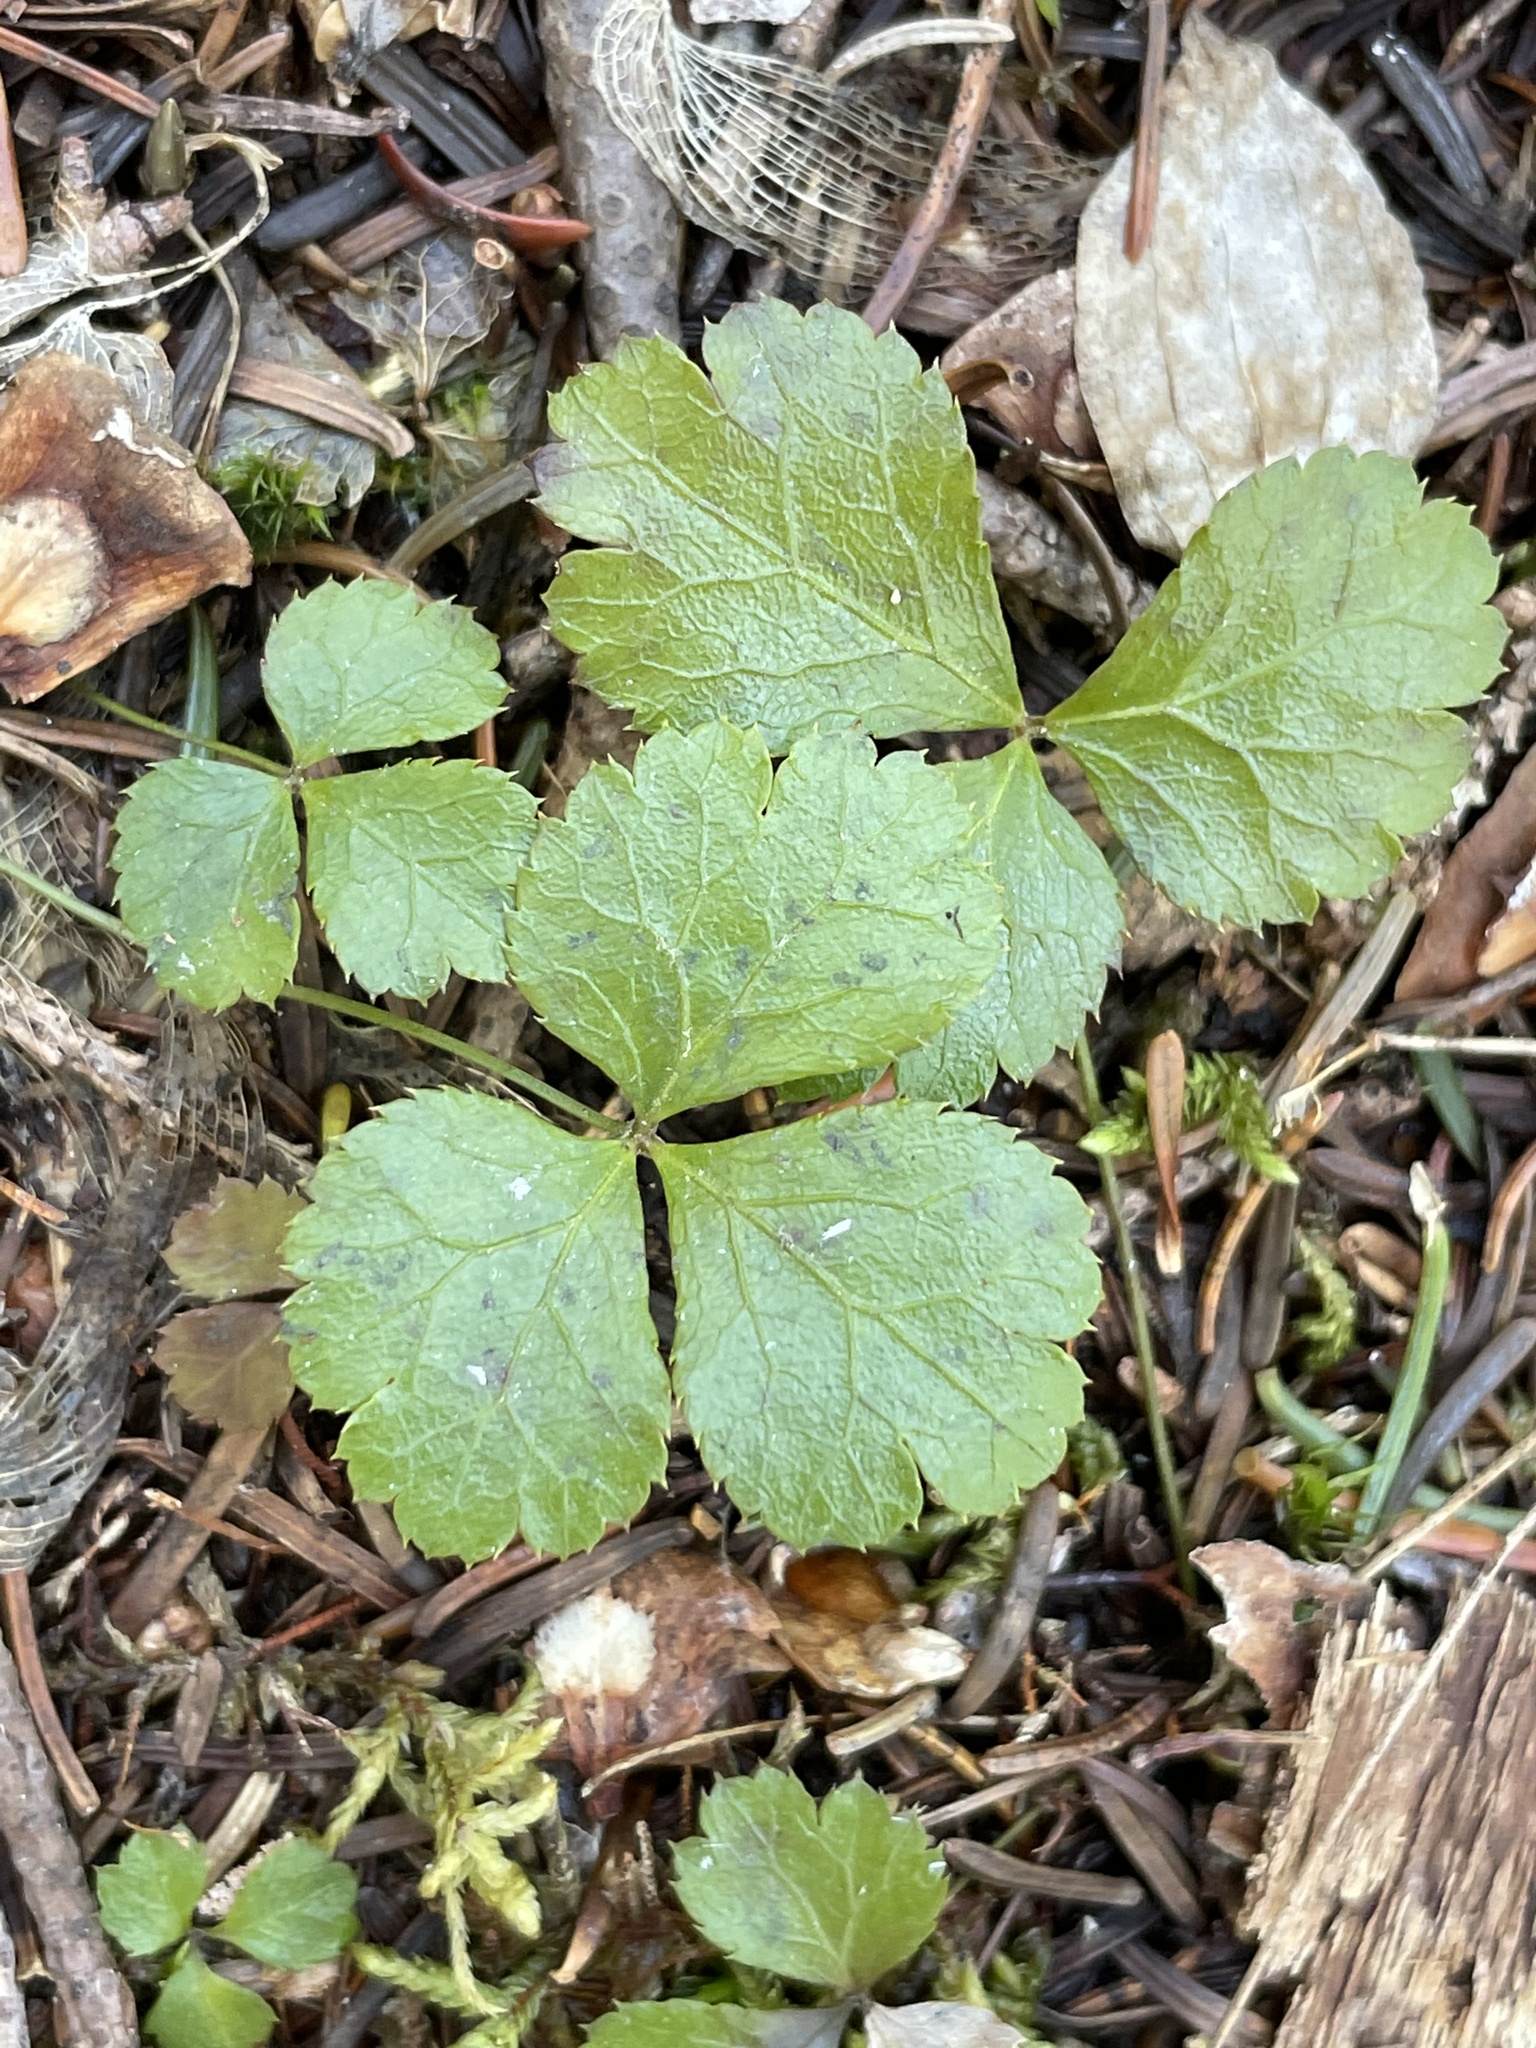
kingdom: Plantae
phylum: Tracheophyta
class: Magnoliopsida
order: Ranunculales
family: Ranunculaceae
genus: Coptis
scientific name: Coptis trifolia
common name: Canker-root
